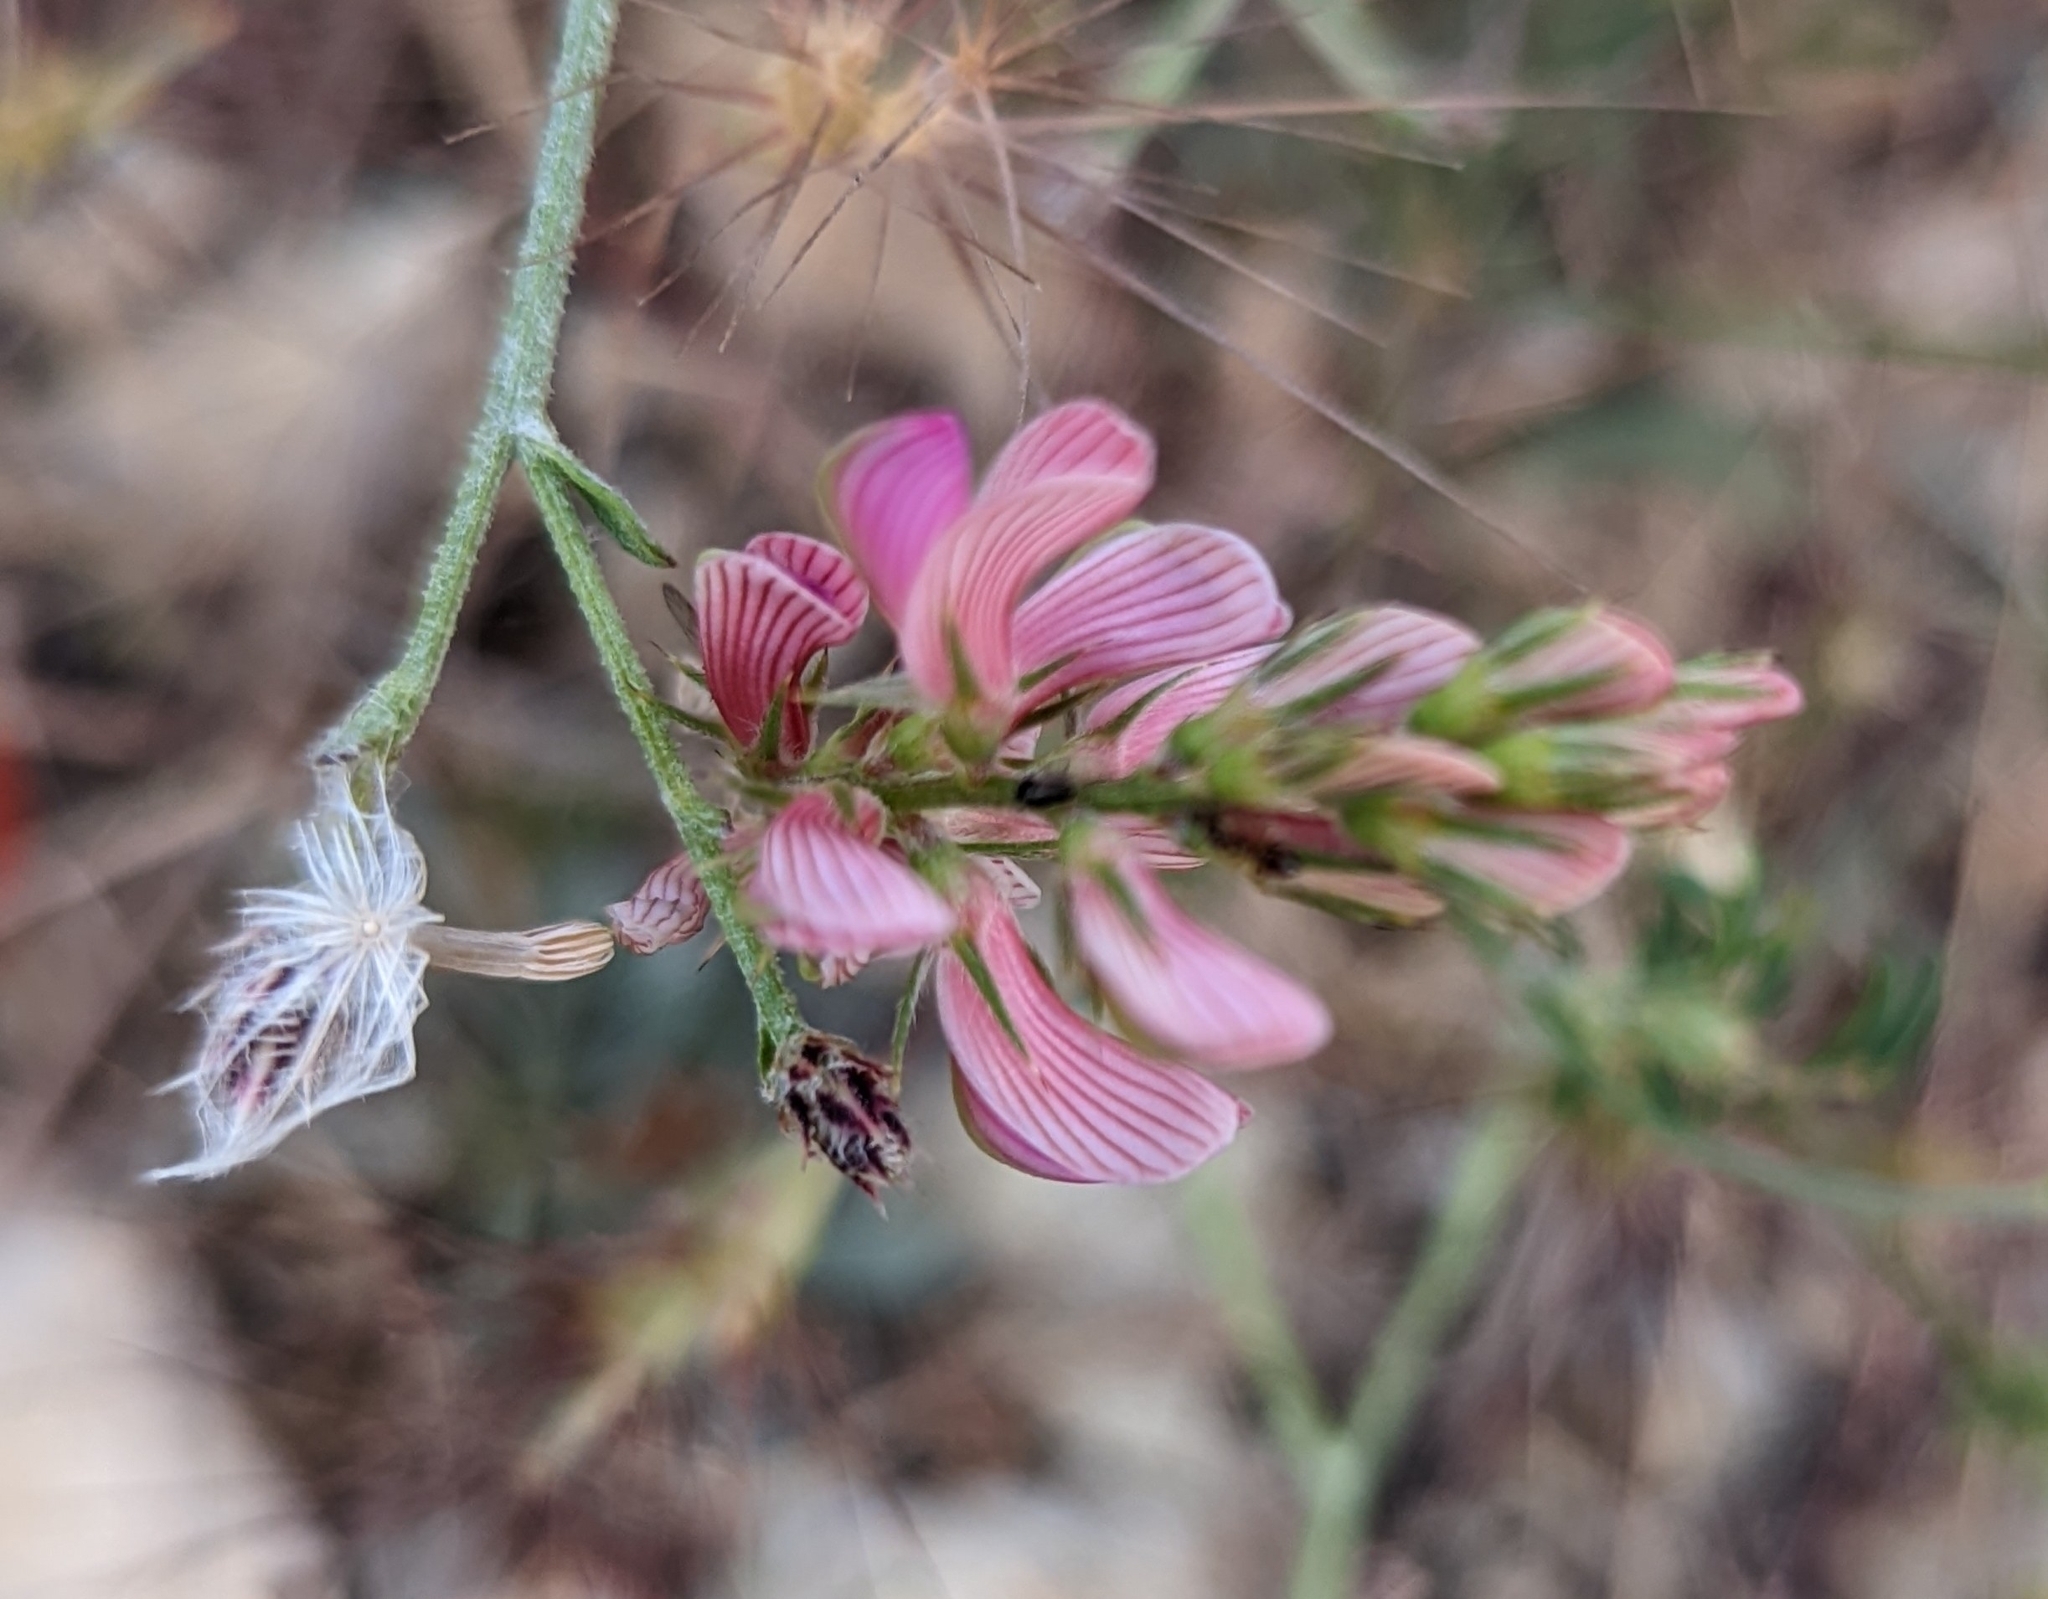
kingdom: Plantae
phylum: Tracheophyta
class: Magnoliopsida
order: Fabales
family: Fabaceae
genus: Onobrychis
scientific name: Onobrychis viciifolia
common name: Sainfoin
